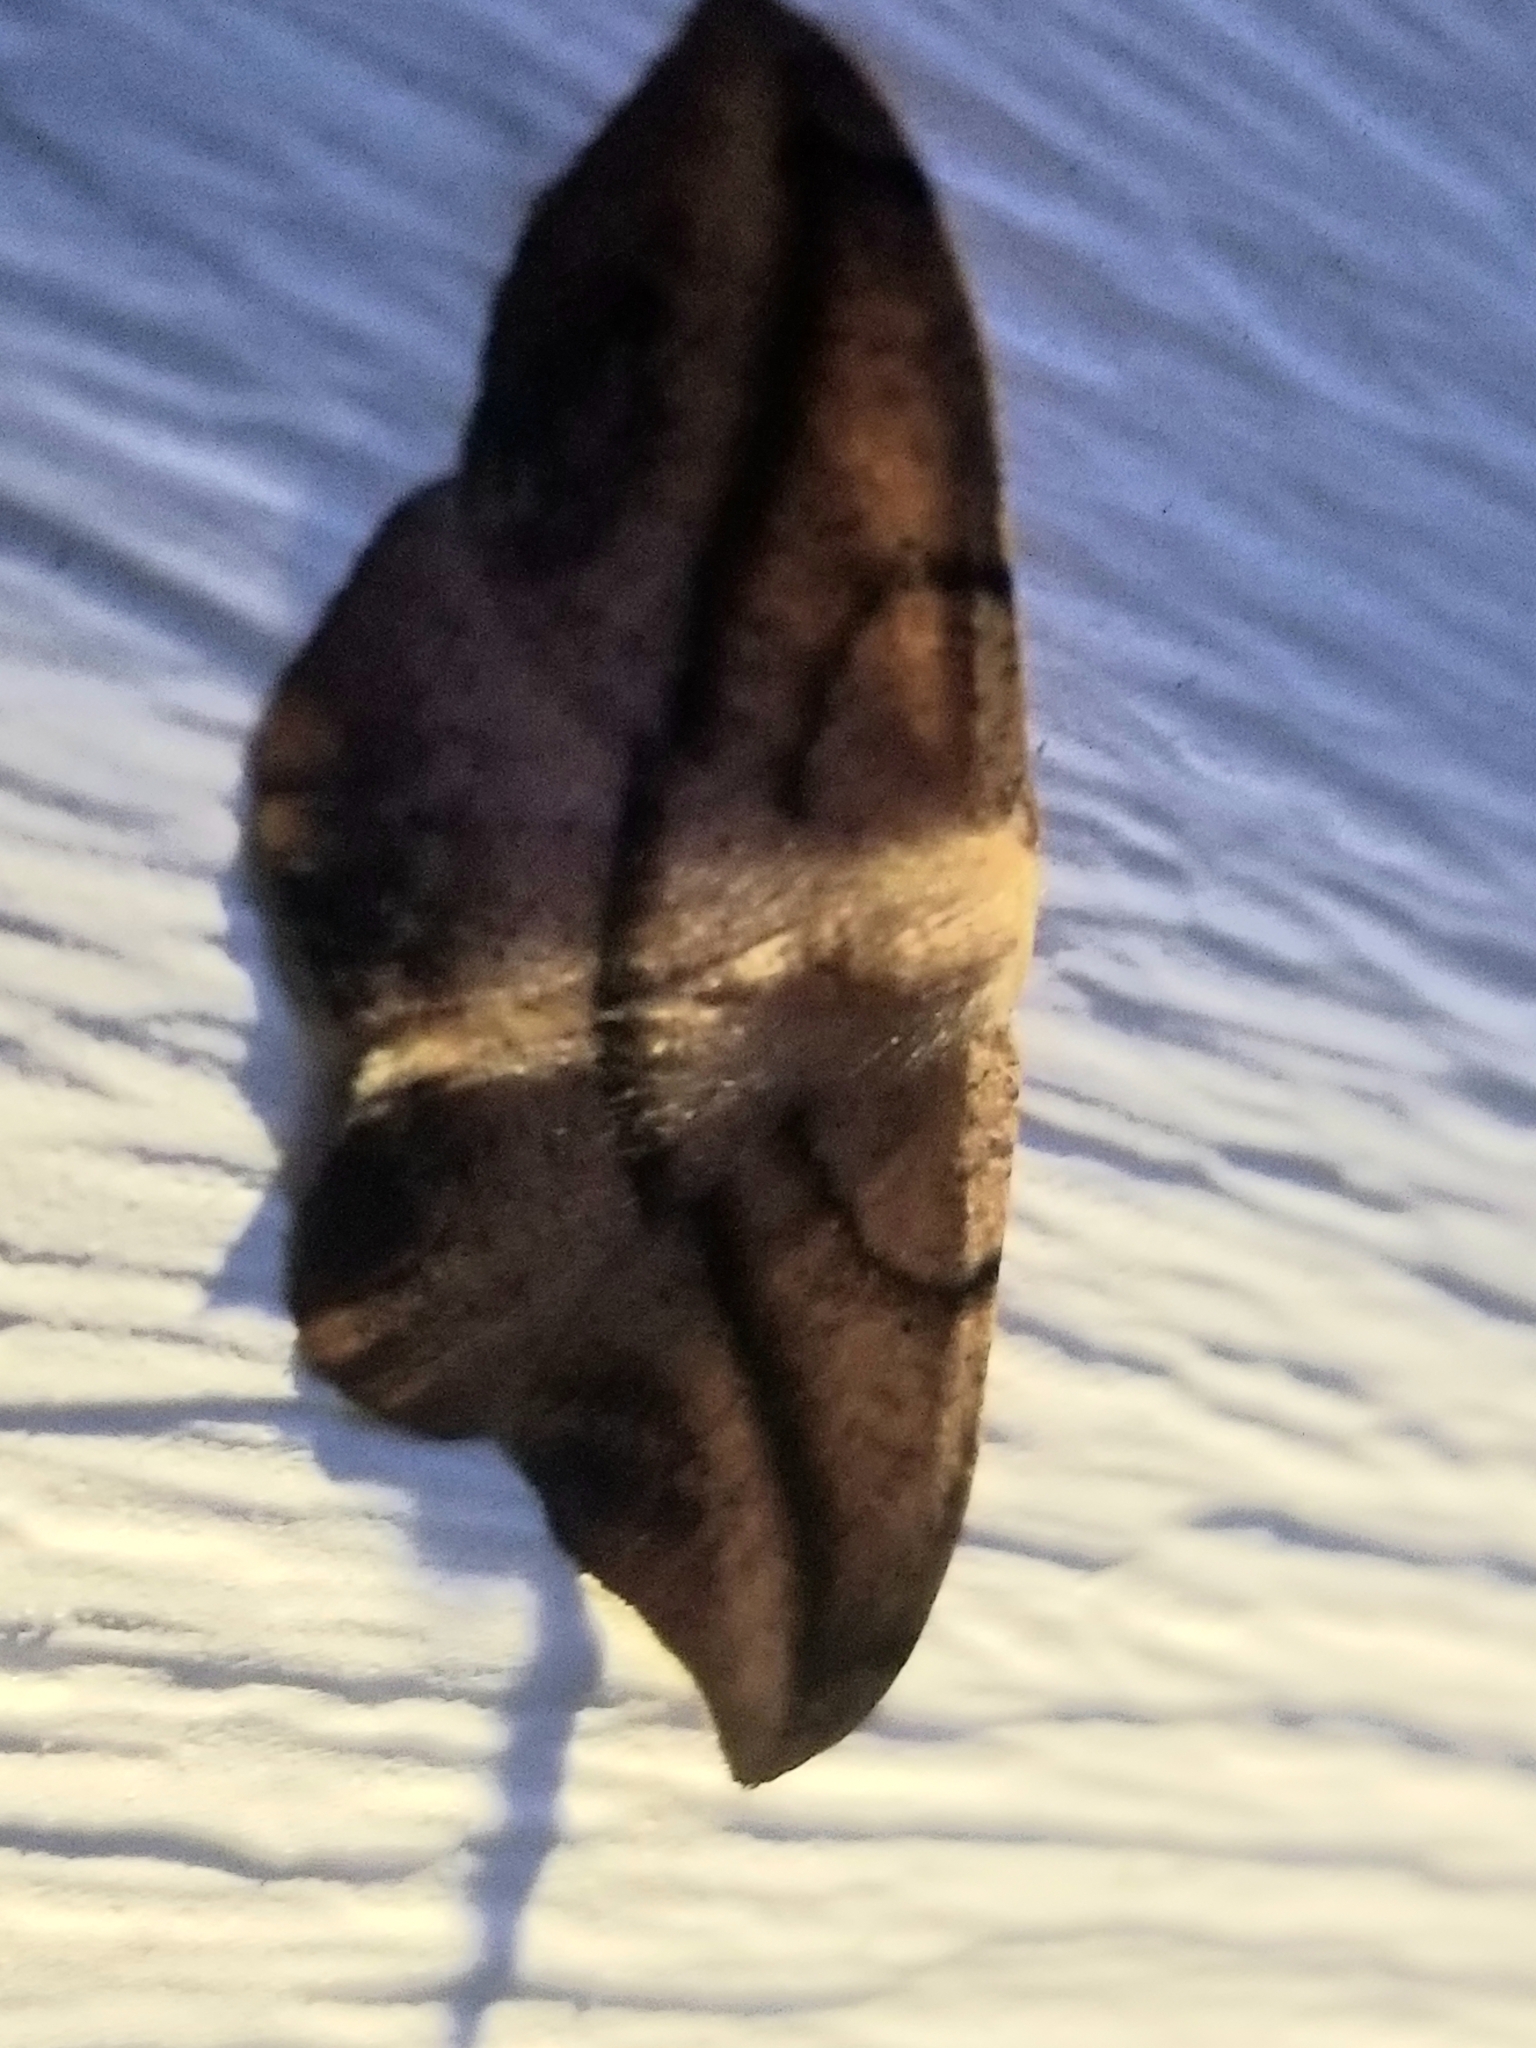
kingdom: Animalia
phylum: Arthropoda
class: Insecta
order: Lepidoptera
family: Geometridae
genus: Patalene
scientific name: Patalene olyzonaria
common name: Juniper geometer moth
